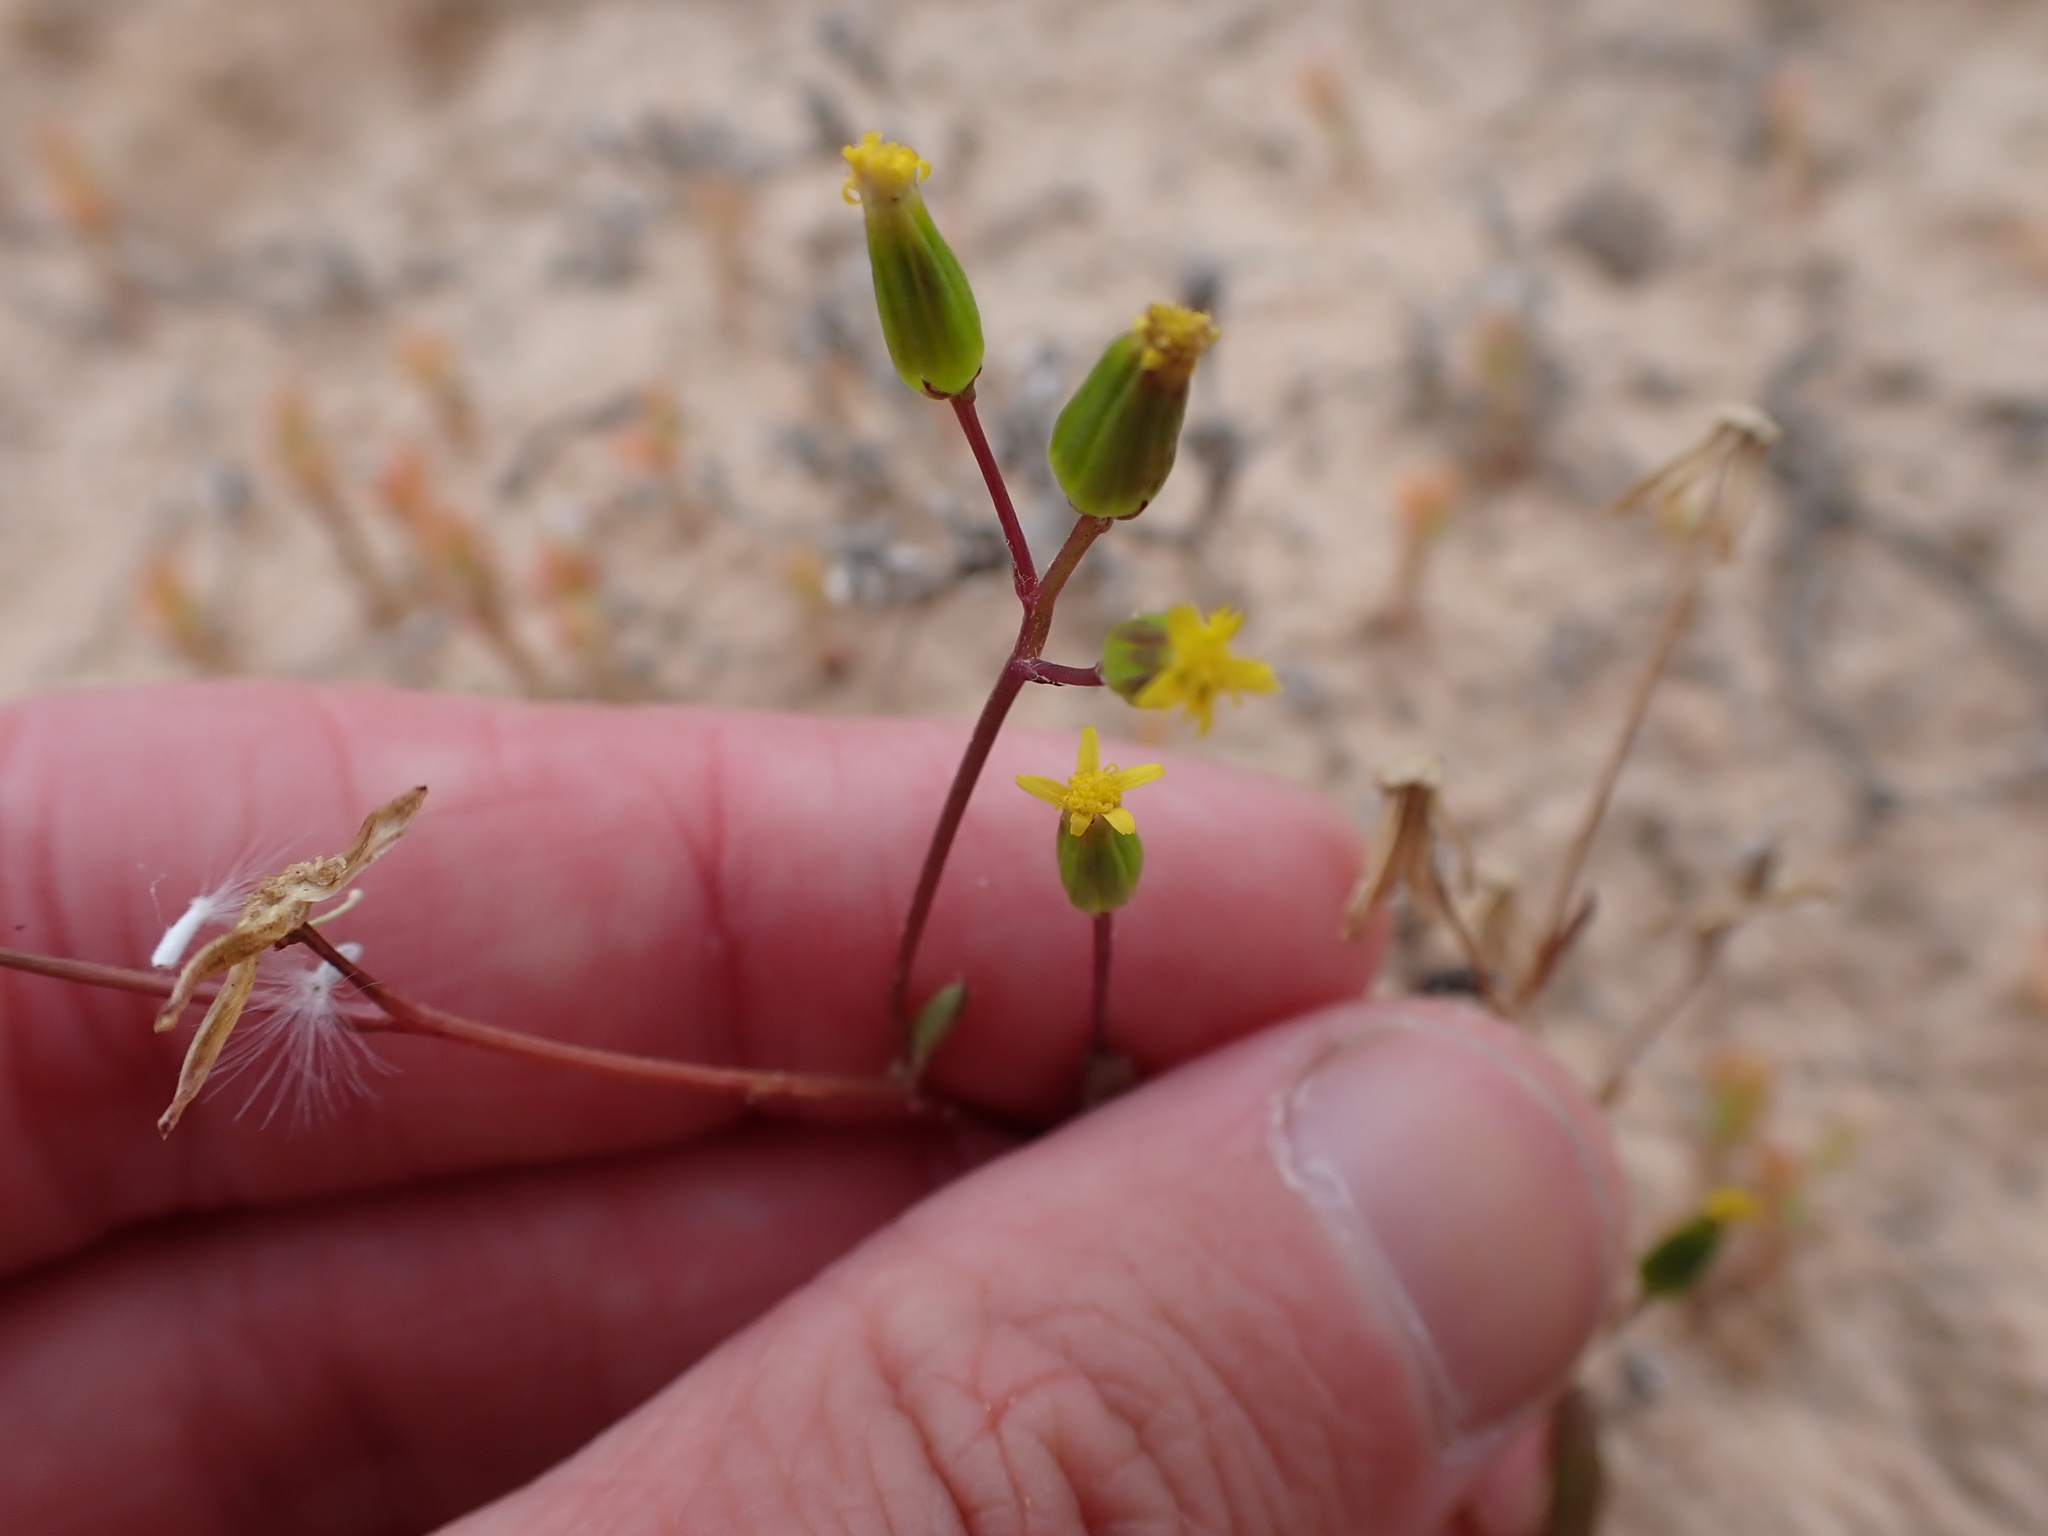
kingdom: Plantae
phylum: Tracheophyta
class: Magnoliopsida
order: Asterales
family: Asteraceae
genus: Senecio
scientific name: Senecio glossanthus
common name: Slender groundsel
